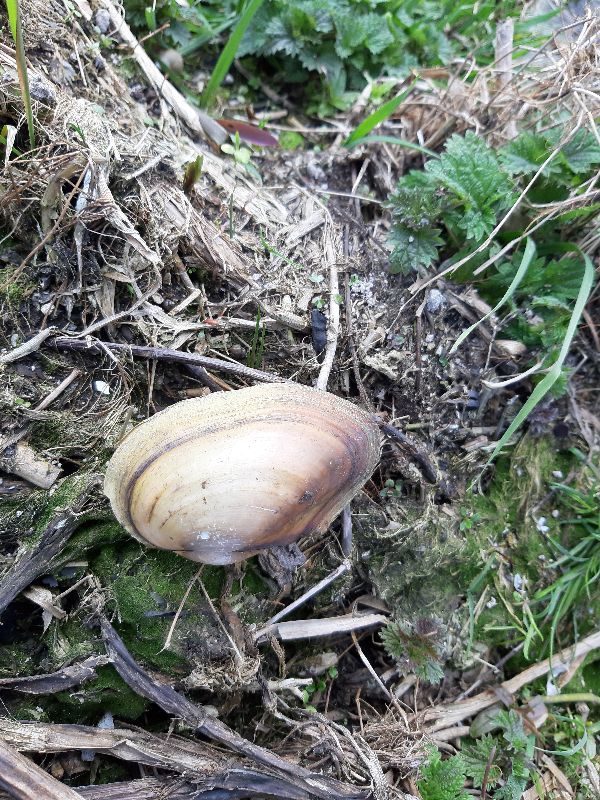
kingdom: Animalia
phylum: Mollusca
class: Bivalvia
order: Unionida
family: Unionidae
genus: Anodonta
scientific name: Anodonta anatina
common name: Duck mussel
